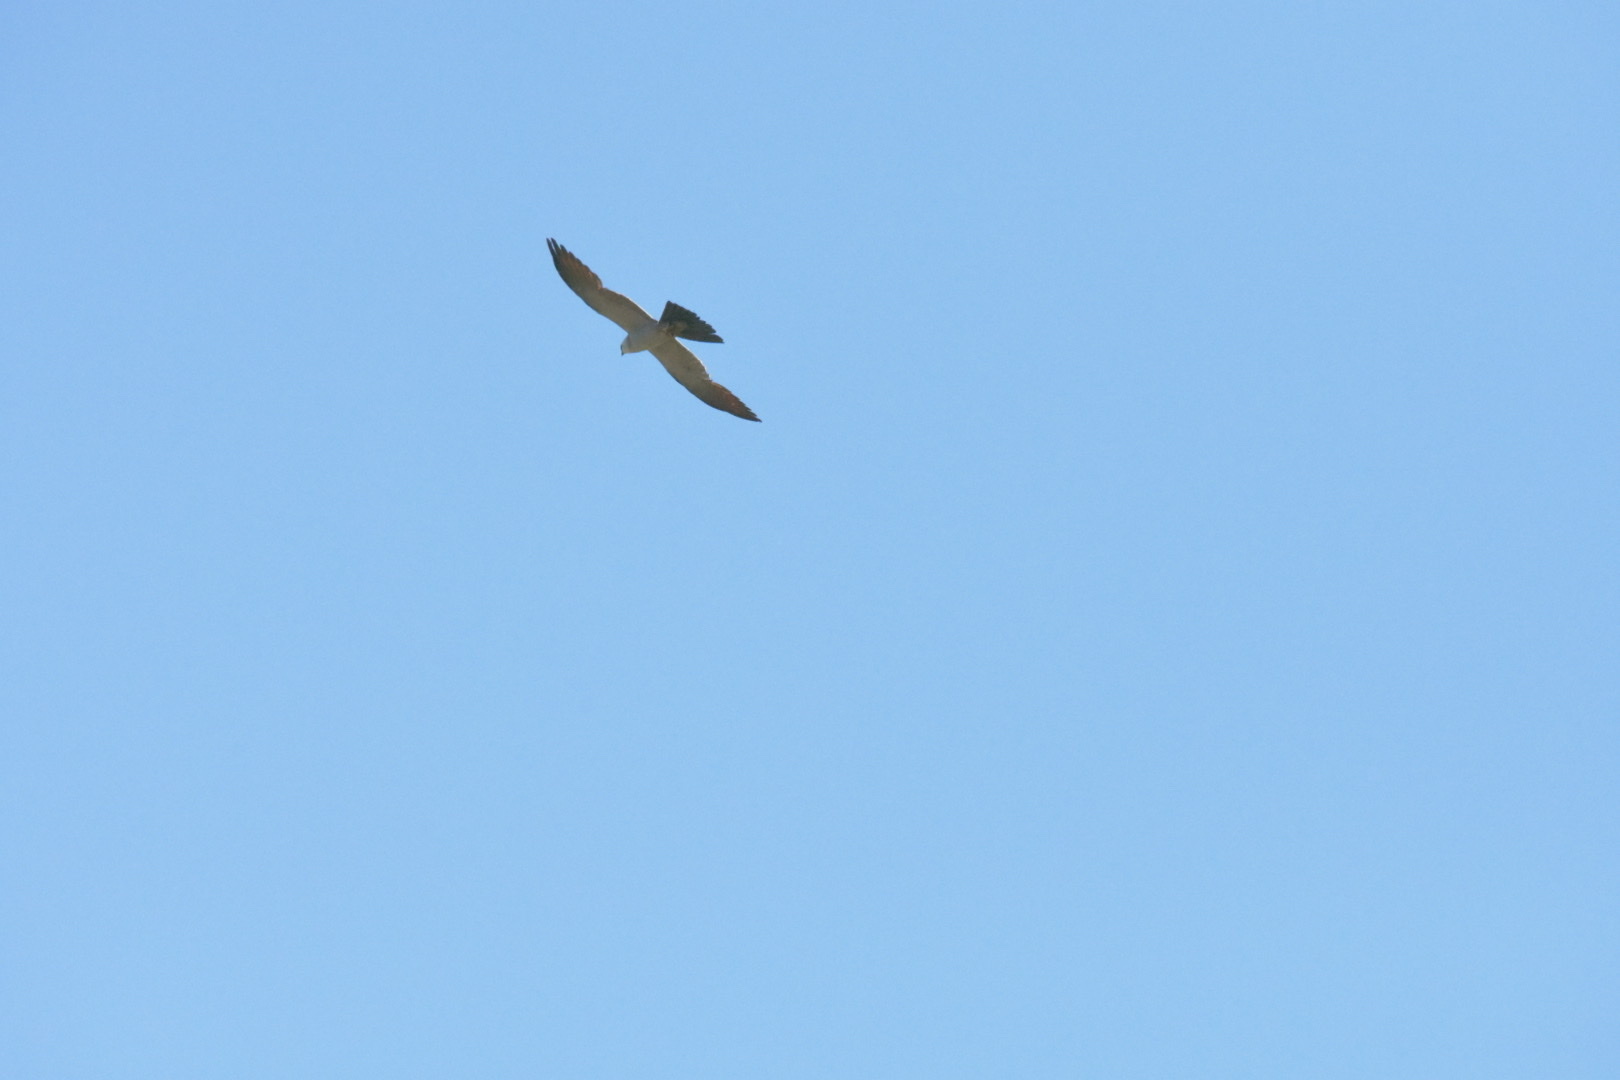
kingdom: Animalia
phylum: Chordata
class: Aves
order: Accipitriformes
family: Accipitridae
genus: Ictinia
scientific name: Ictinia mississippiensis
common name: Mississippi kite
